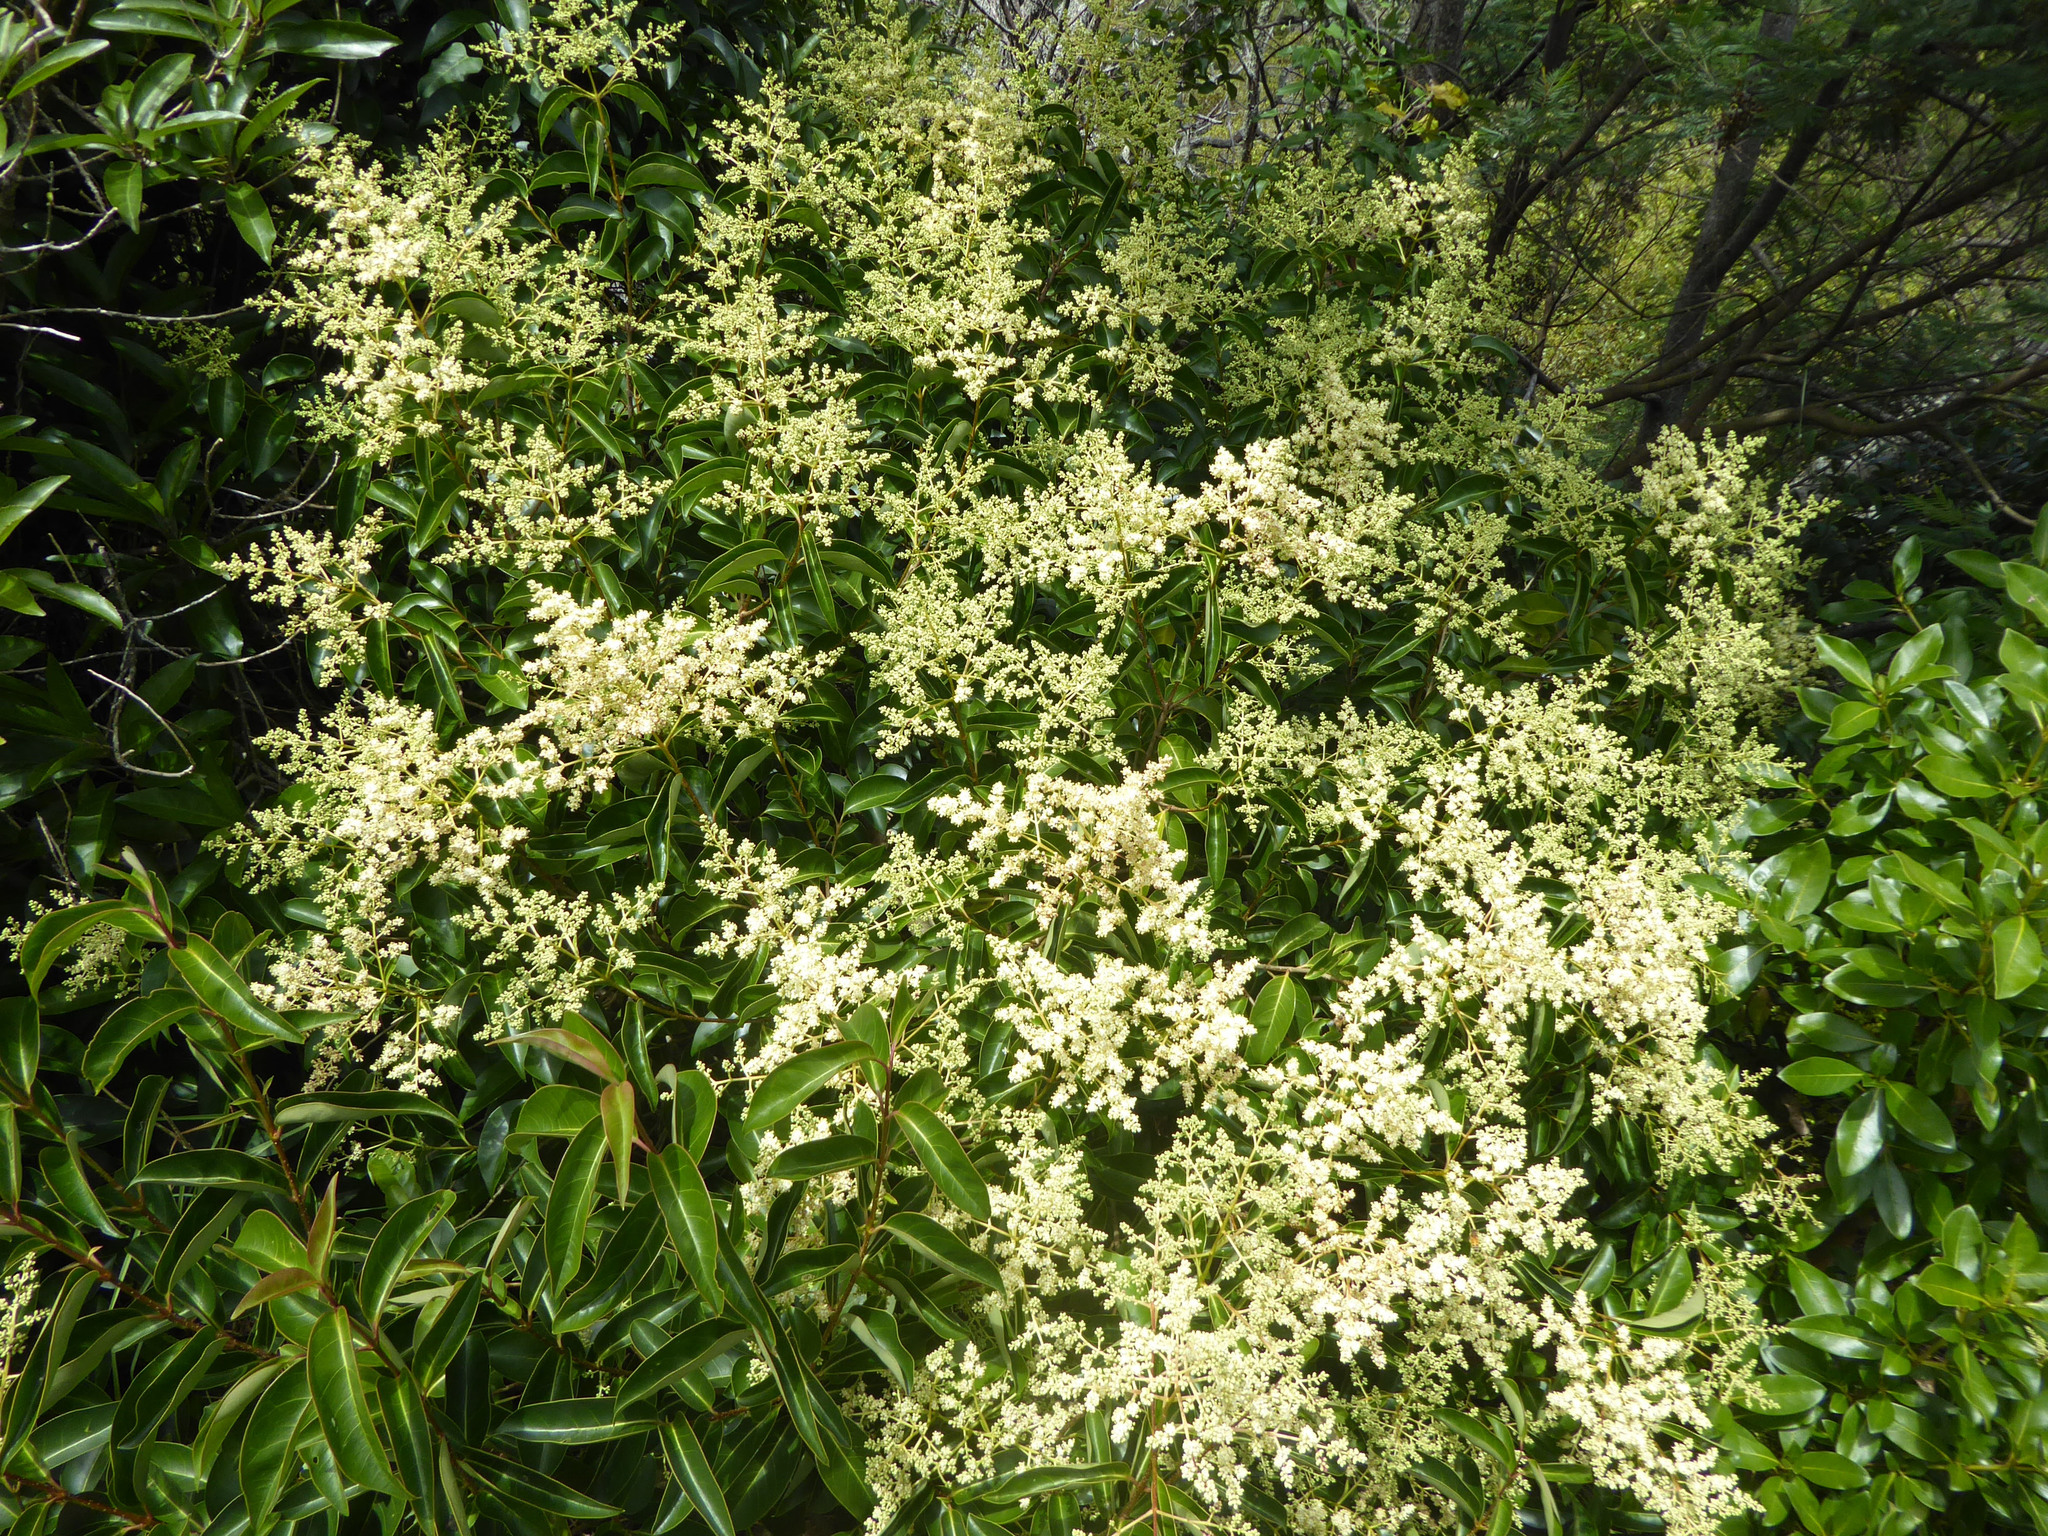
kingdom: Plantae
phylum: Tracheophyta
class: Magnoliopsida
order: Lamiales
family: Oleaceae
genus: Ligustrum
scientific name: Ligustrum lucidum
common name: Glossy privet
